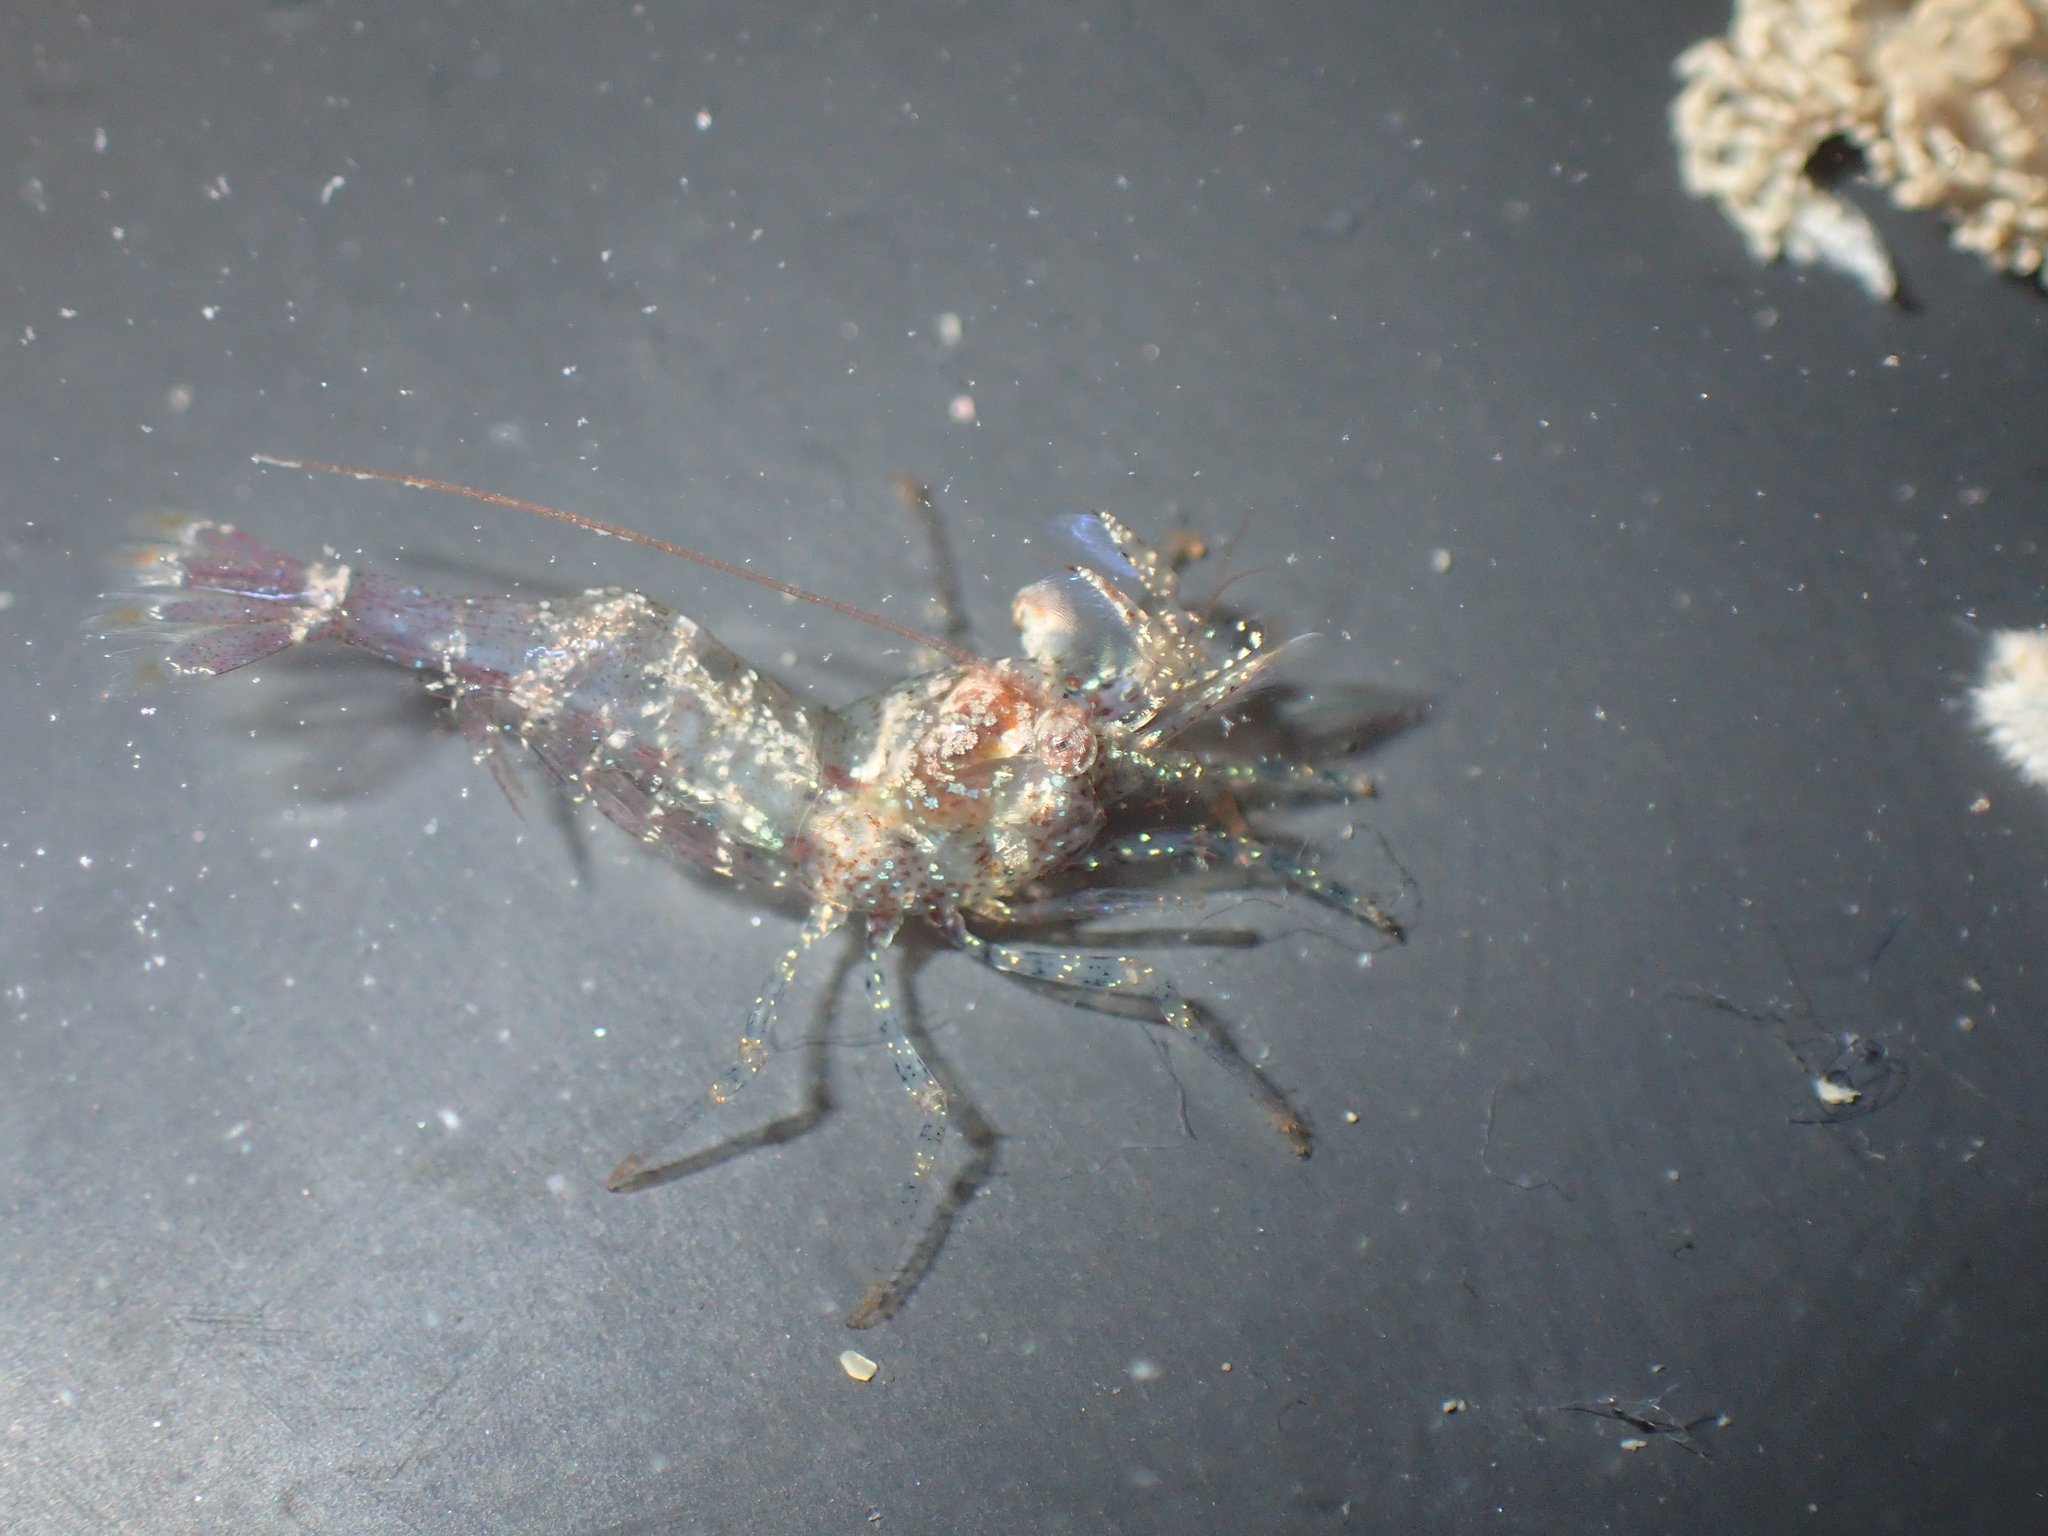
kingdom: Animalia
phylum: Arthropoda
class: Malacostraca
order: Decapoda
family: Thoridae
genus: Eualus
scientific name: Eualus cranchii
